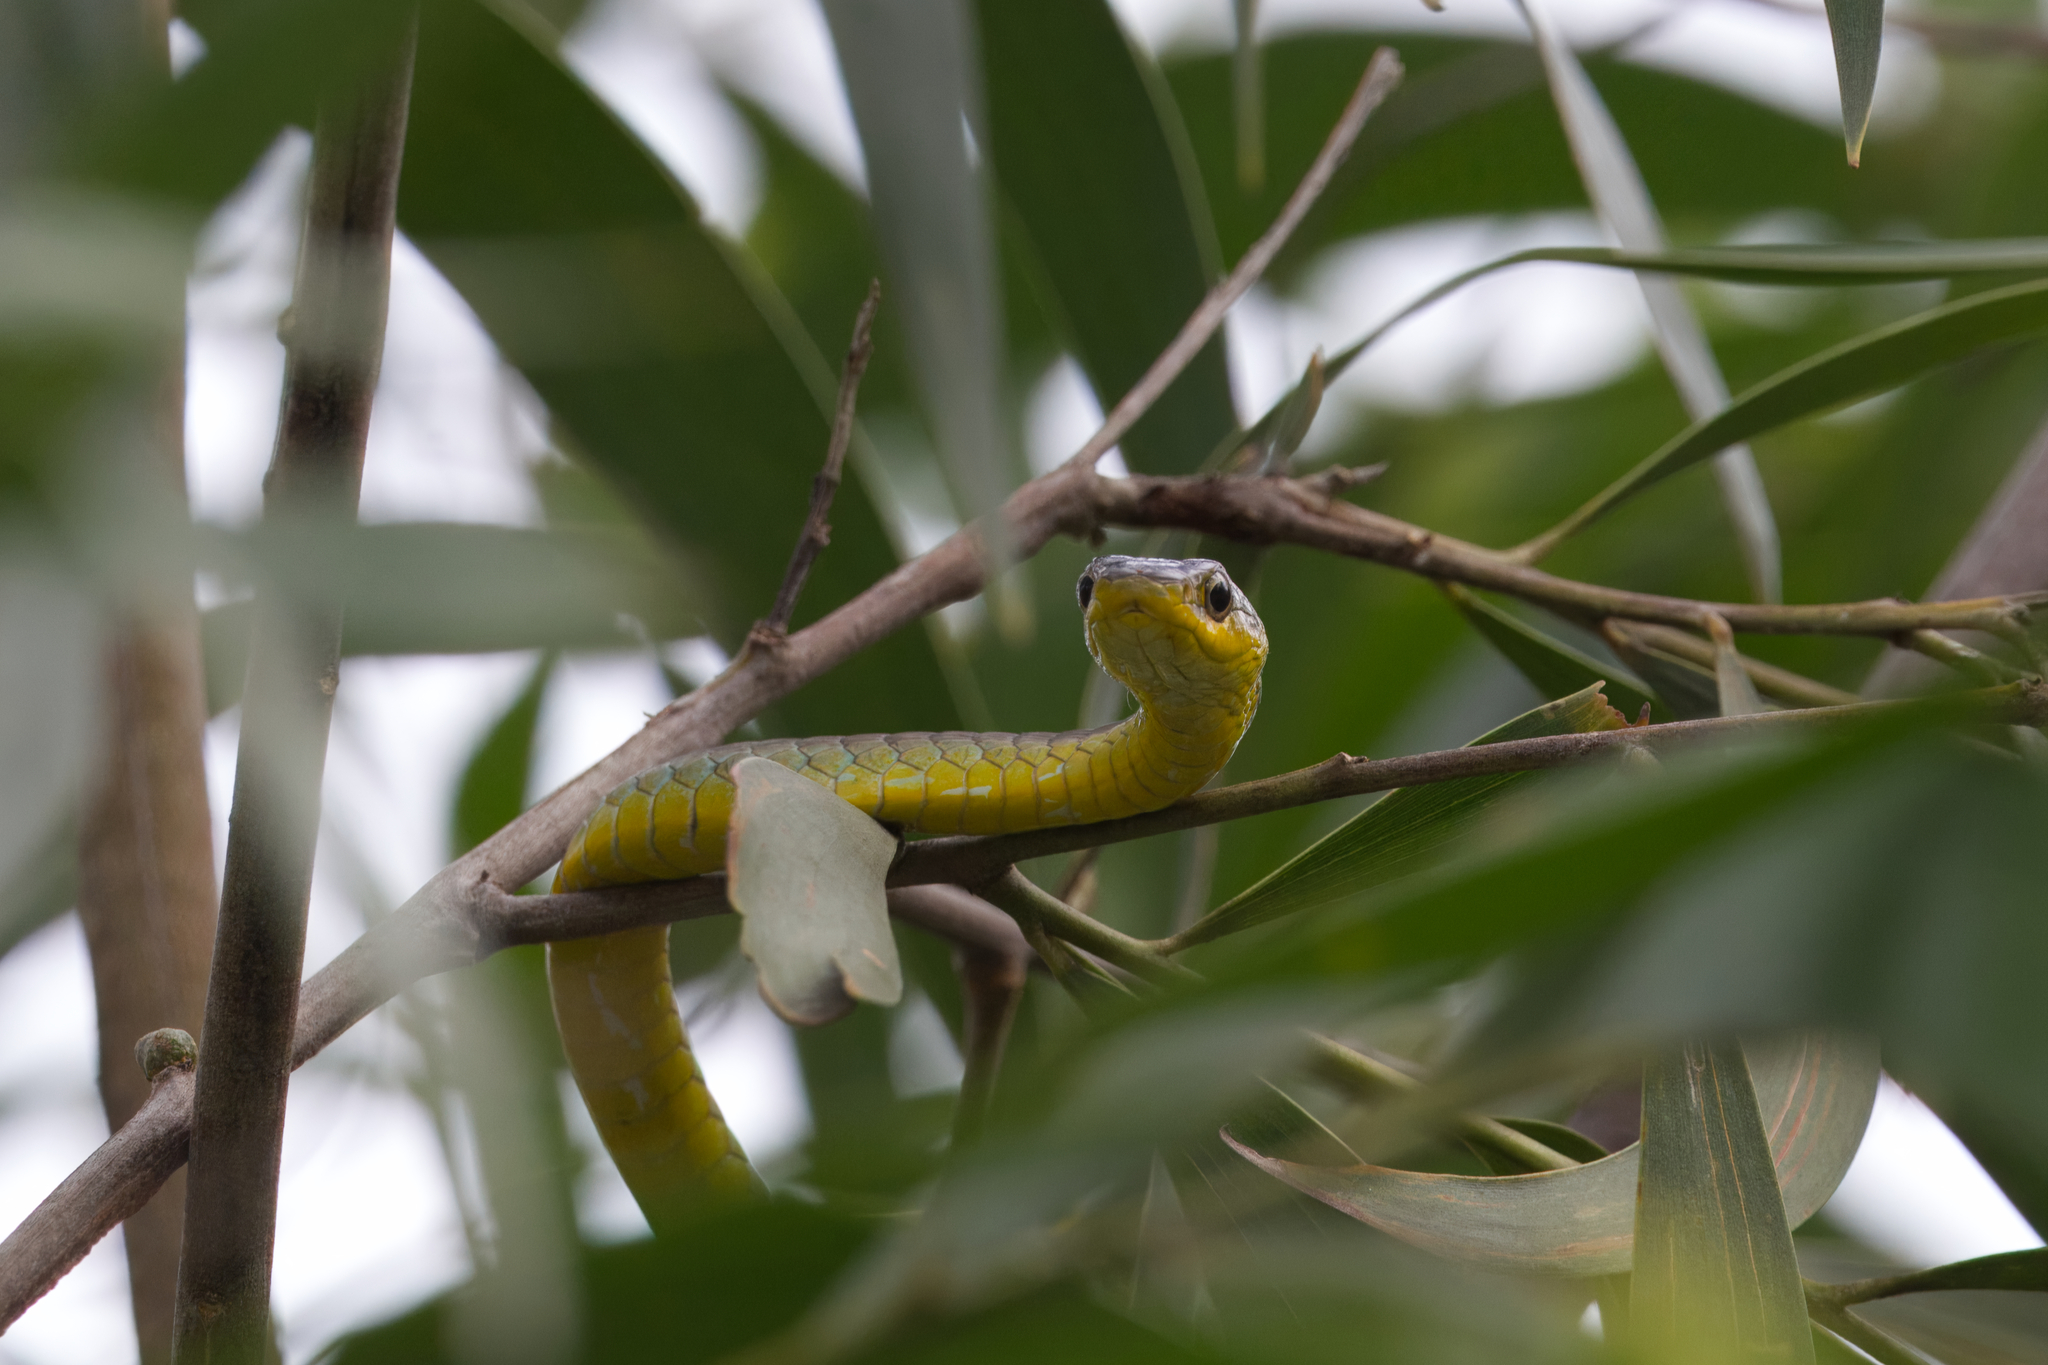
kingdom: Animalia
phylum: Chordata
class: Squamata
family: Colubridae
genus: Dendrelaphis
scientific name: Dendrelaphis punctulatus
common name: Common tree snake
